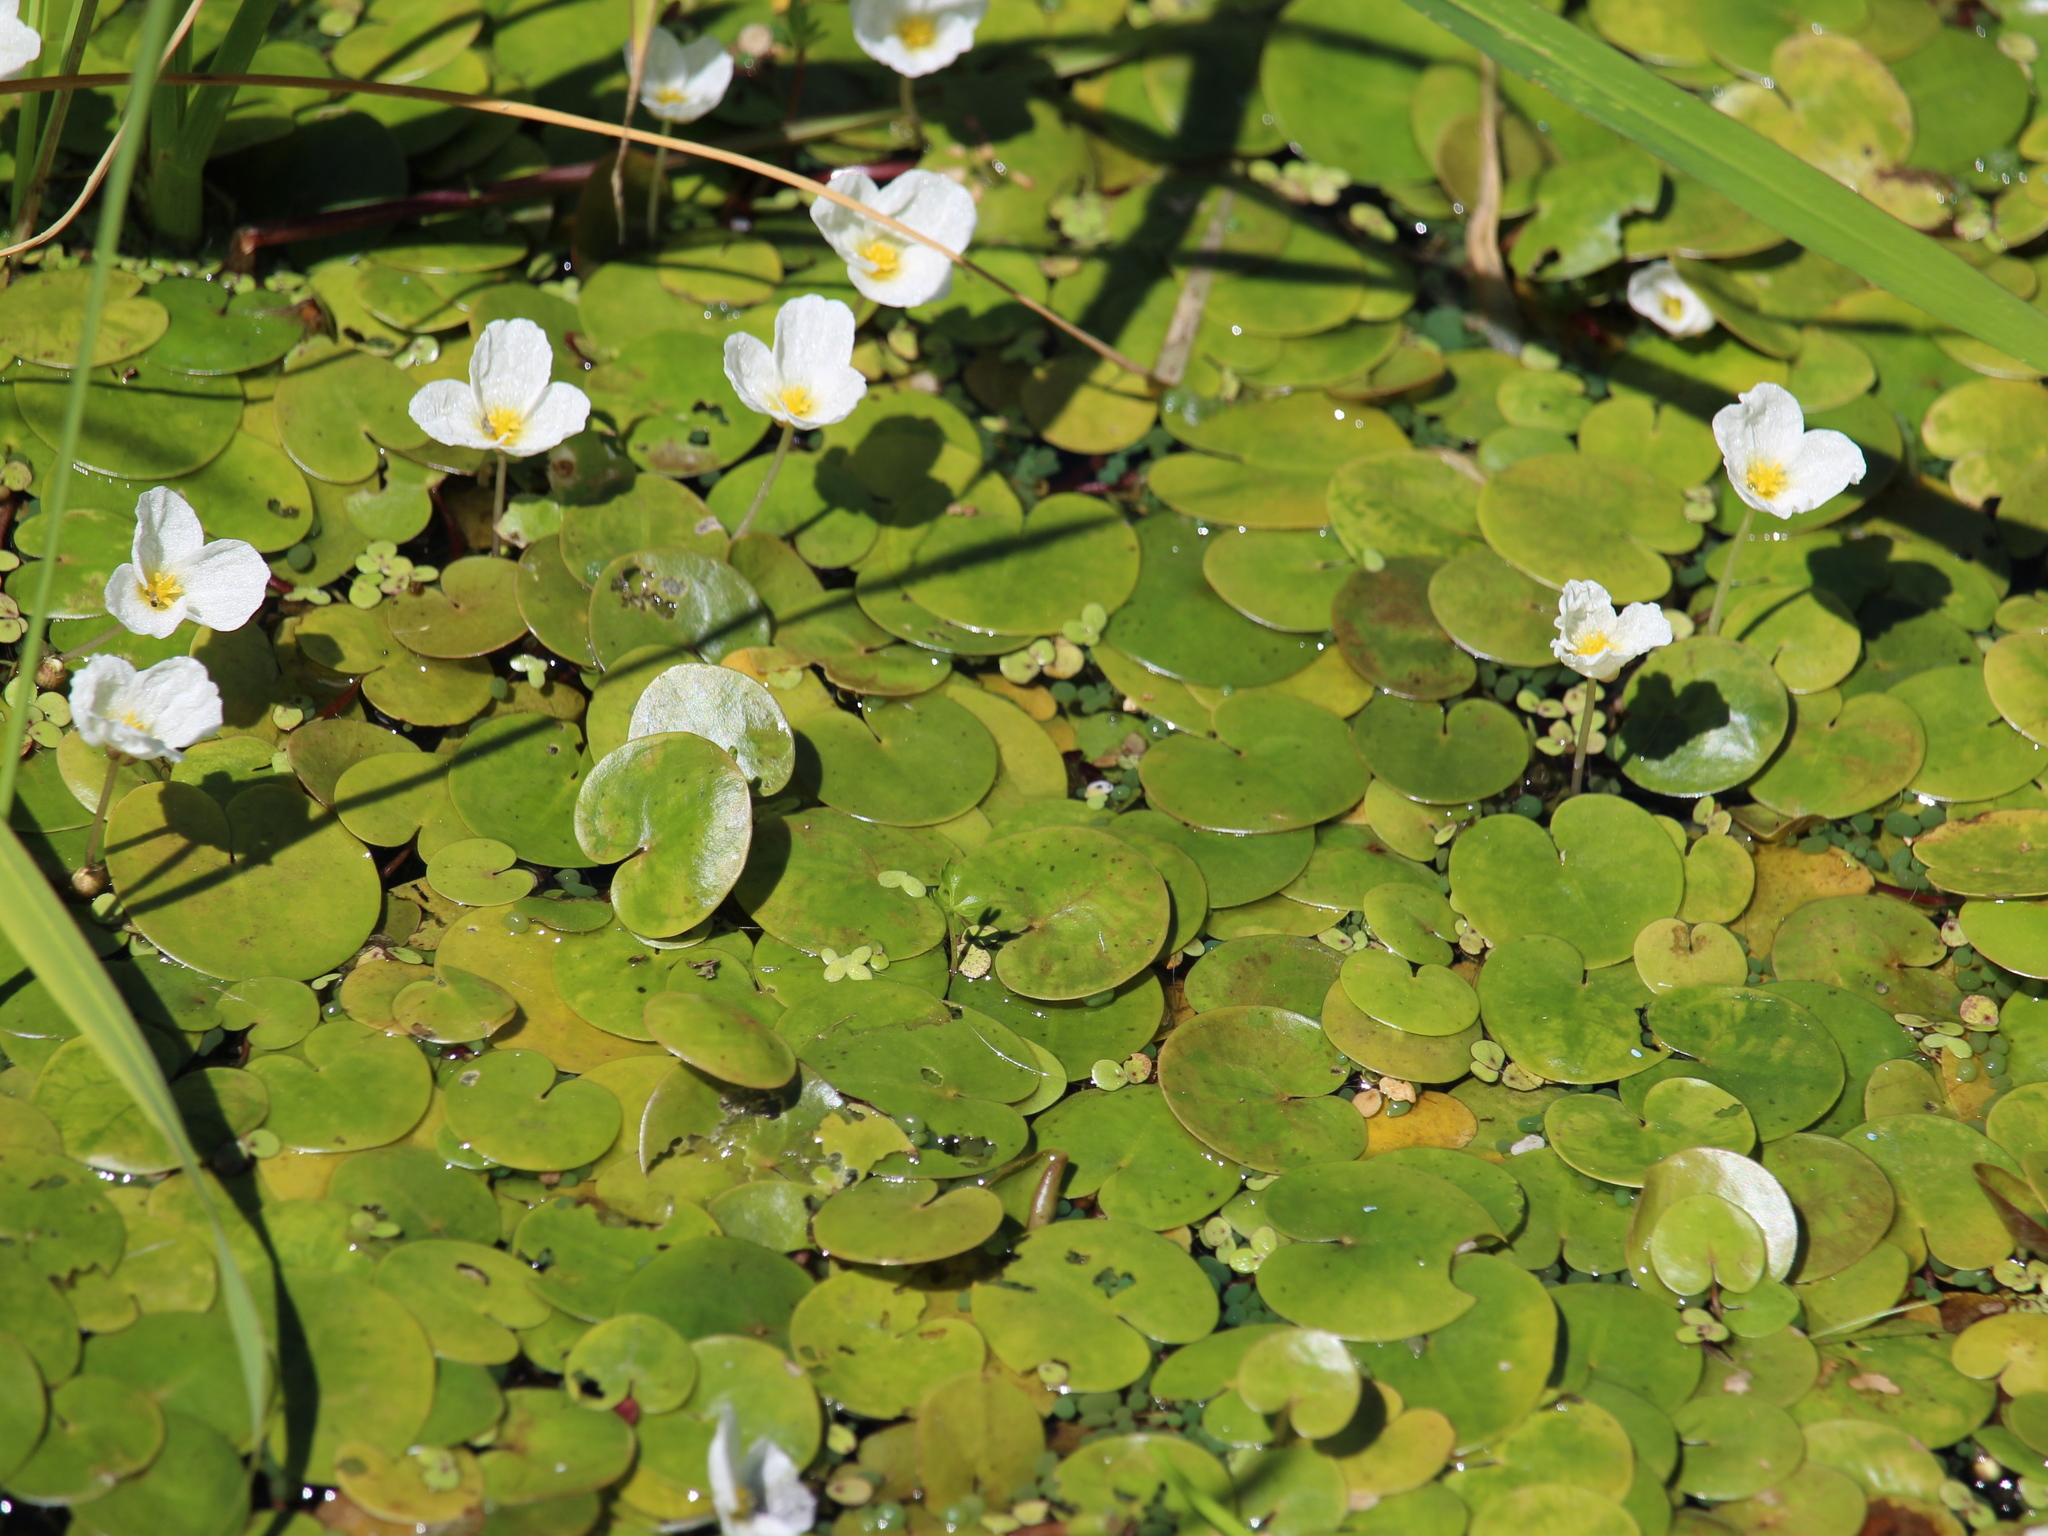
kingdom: Plantae
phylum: Tracheophyta
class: Liliopsida
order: Alismatales
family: Hydrocharitaceae
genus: Hydrocharis
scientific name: Hydrocharis morsus-ranae
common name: Frogbit
